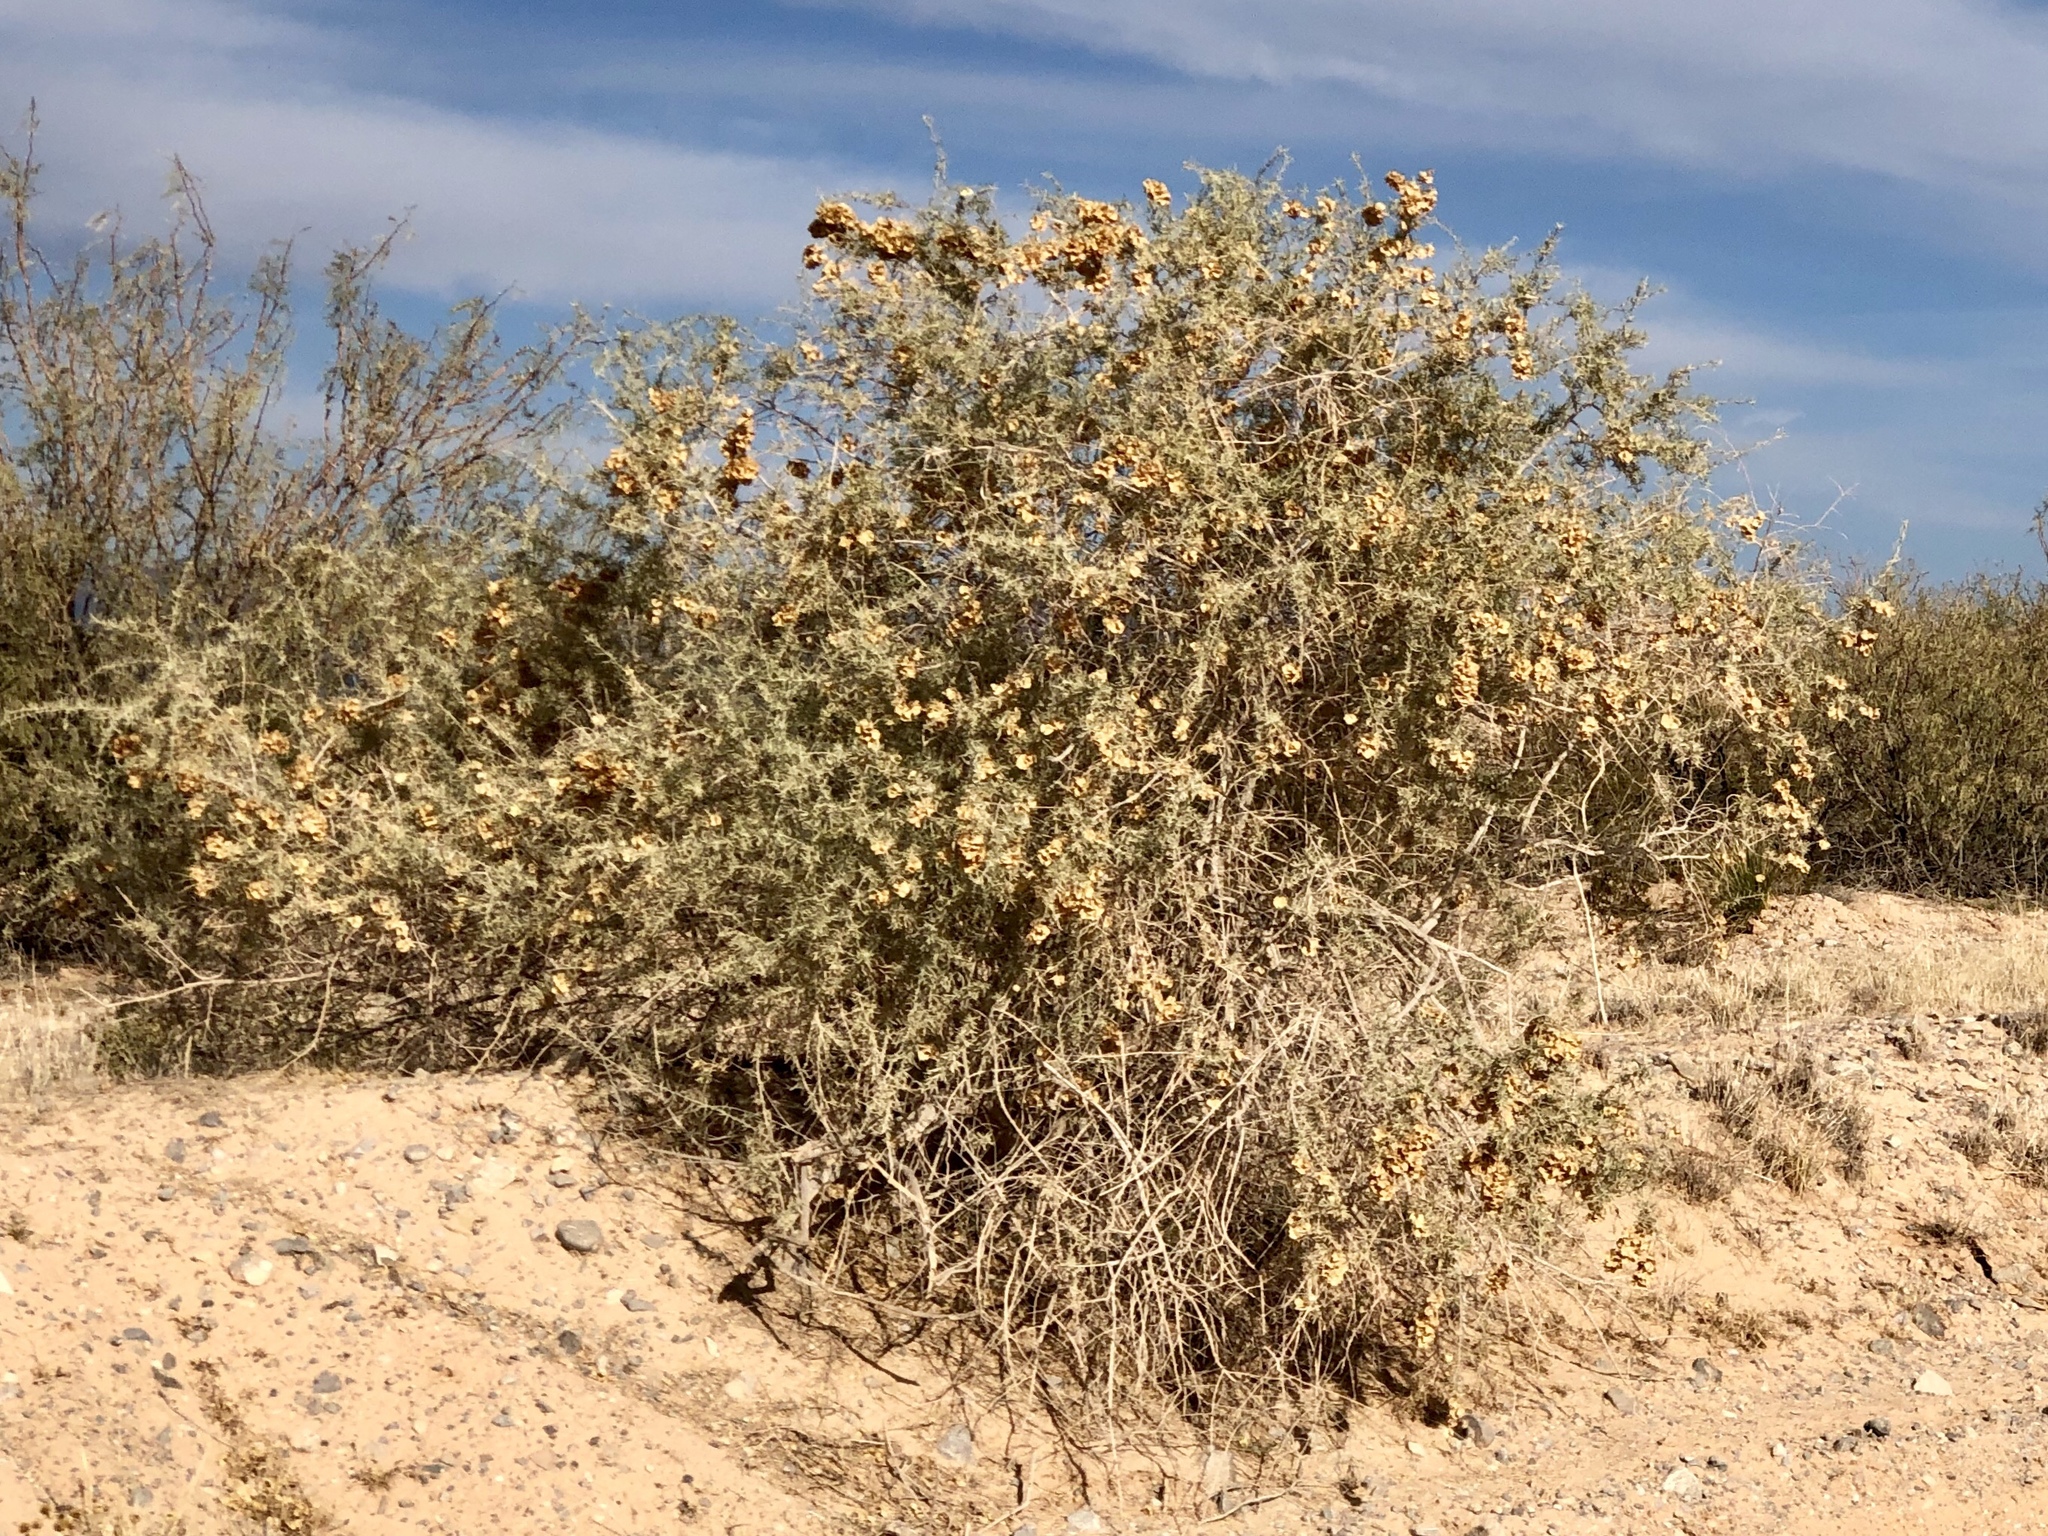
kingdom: Plantae
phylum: Tracheophyta
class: Magnoliopsida
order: Caryophyllales
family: Amaranthaceae
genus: Atriplex
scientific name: Atriplex canescens
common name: Four-wing saltbush
